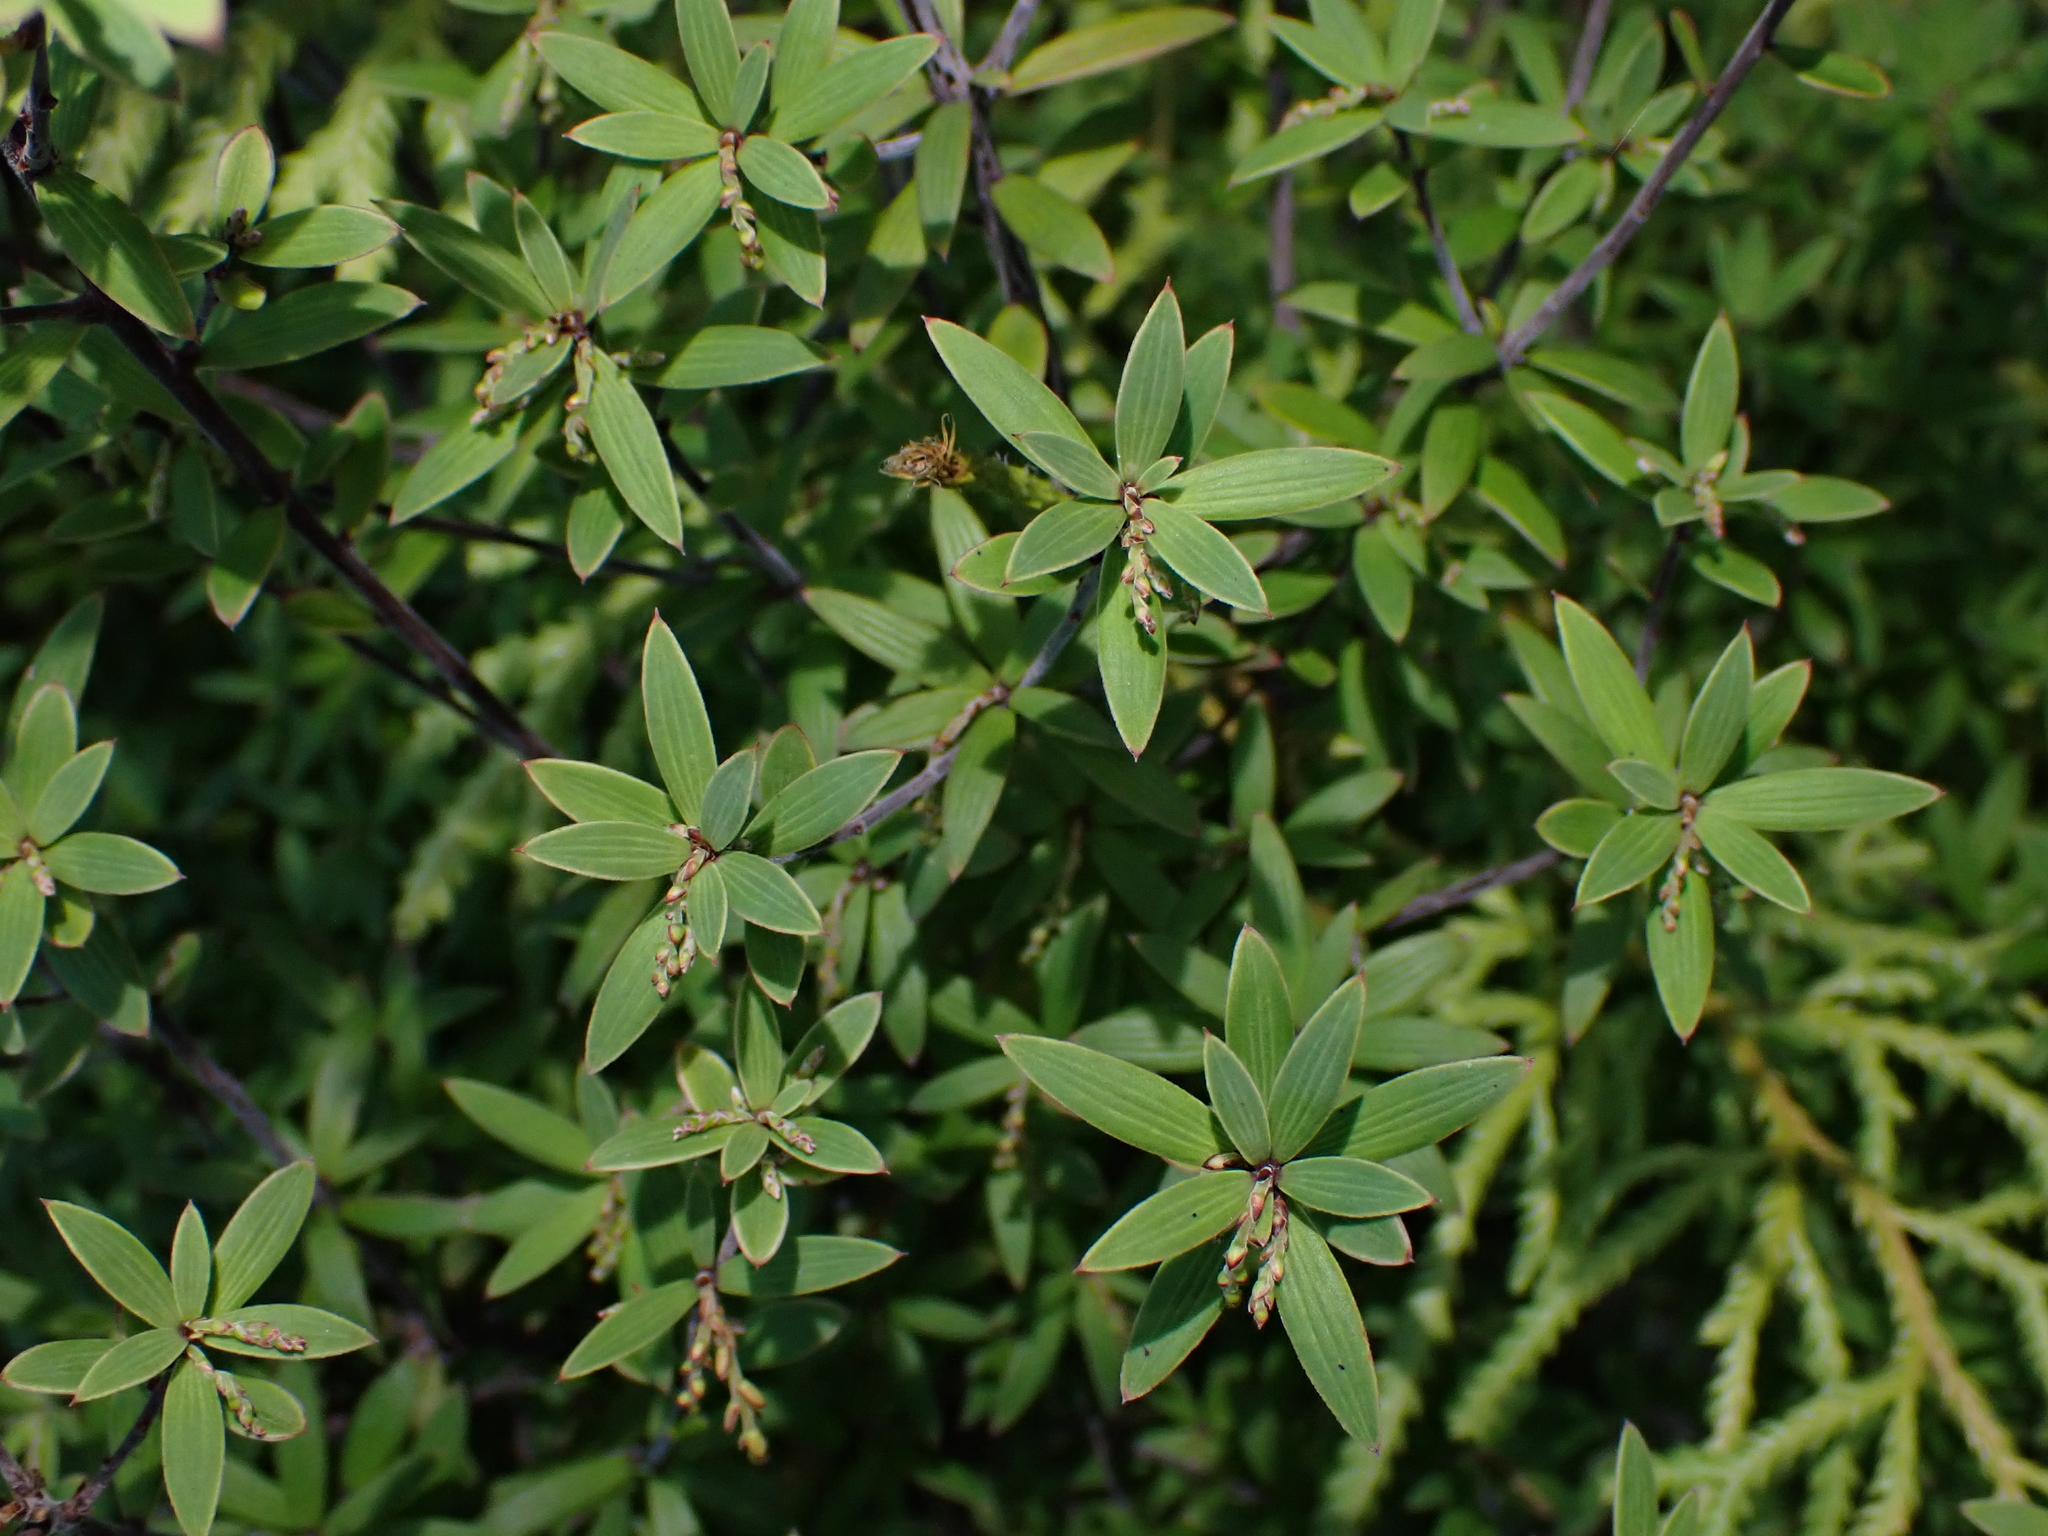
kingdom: Plantae
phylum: Tracheophyta
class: Magnoliopsida
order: Ericales
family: Ericaceae
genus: Leucopogon
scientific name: Leucopogon fasciculatus
